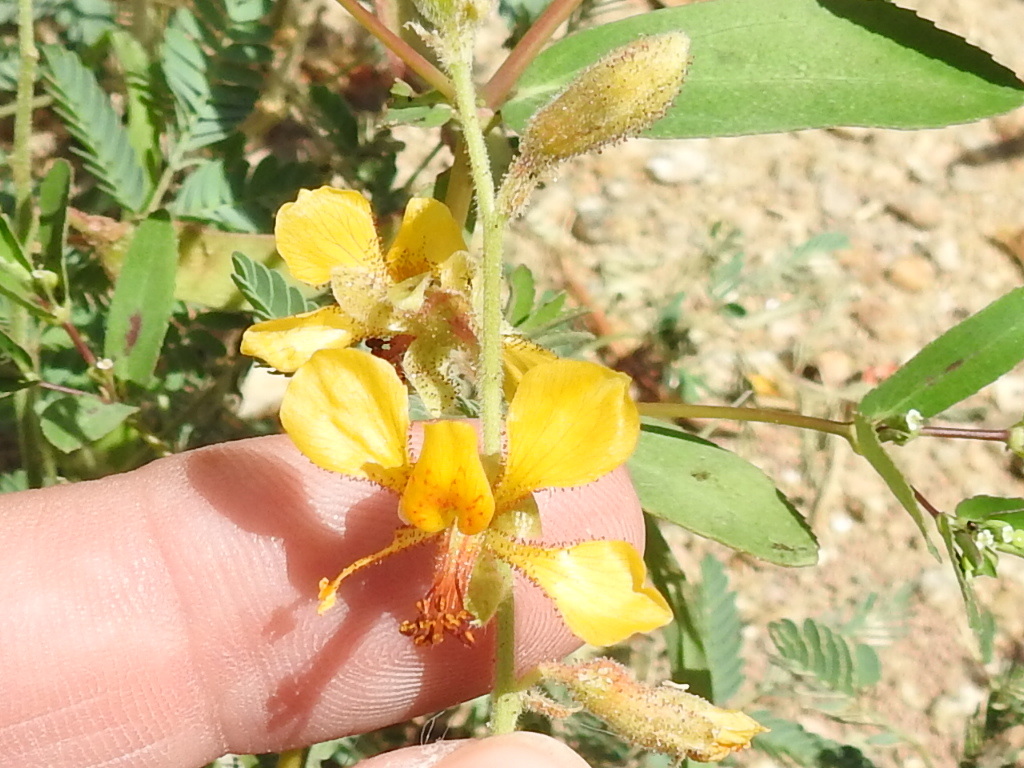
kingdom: Plantae
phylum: Tracheophyta
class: Magnoliopsida
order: Fabales
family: Fabaceae
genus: Hoffmannseggia
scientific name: Hoffmannseggia glauca
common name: Pignut
